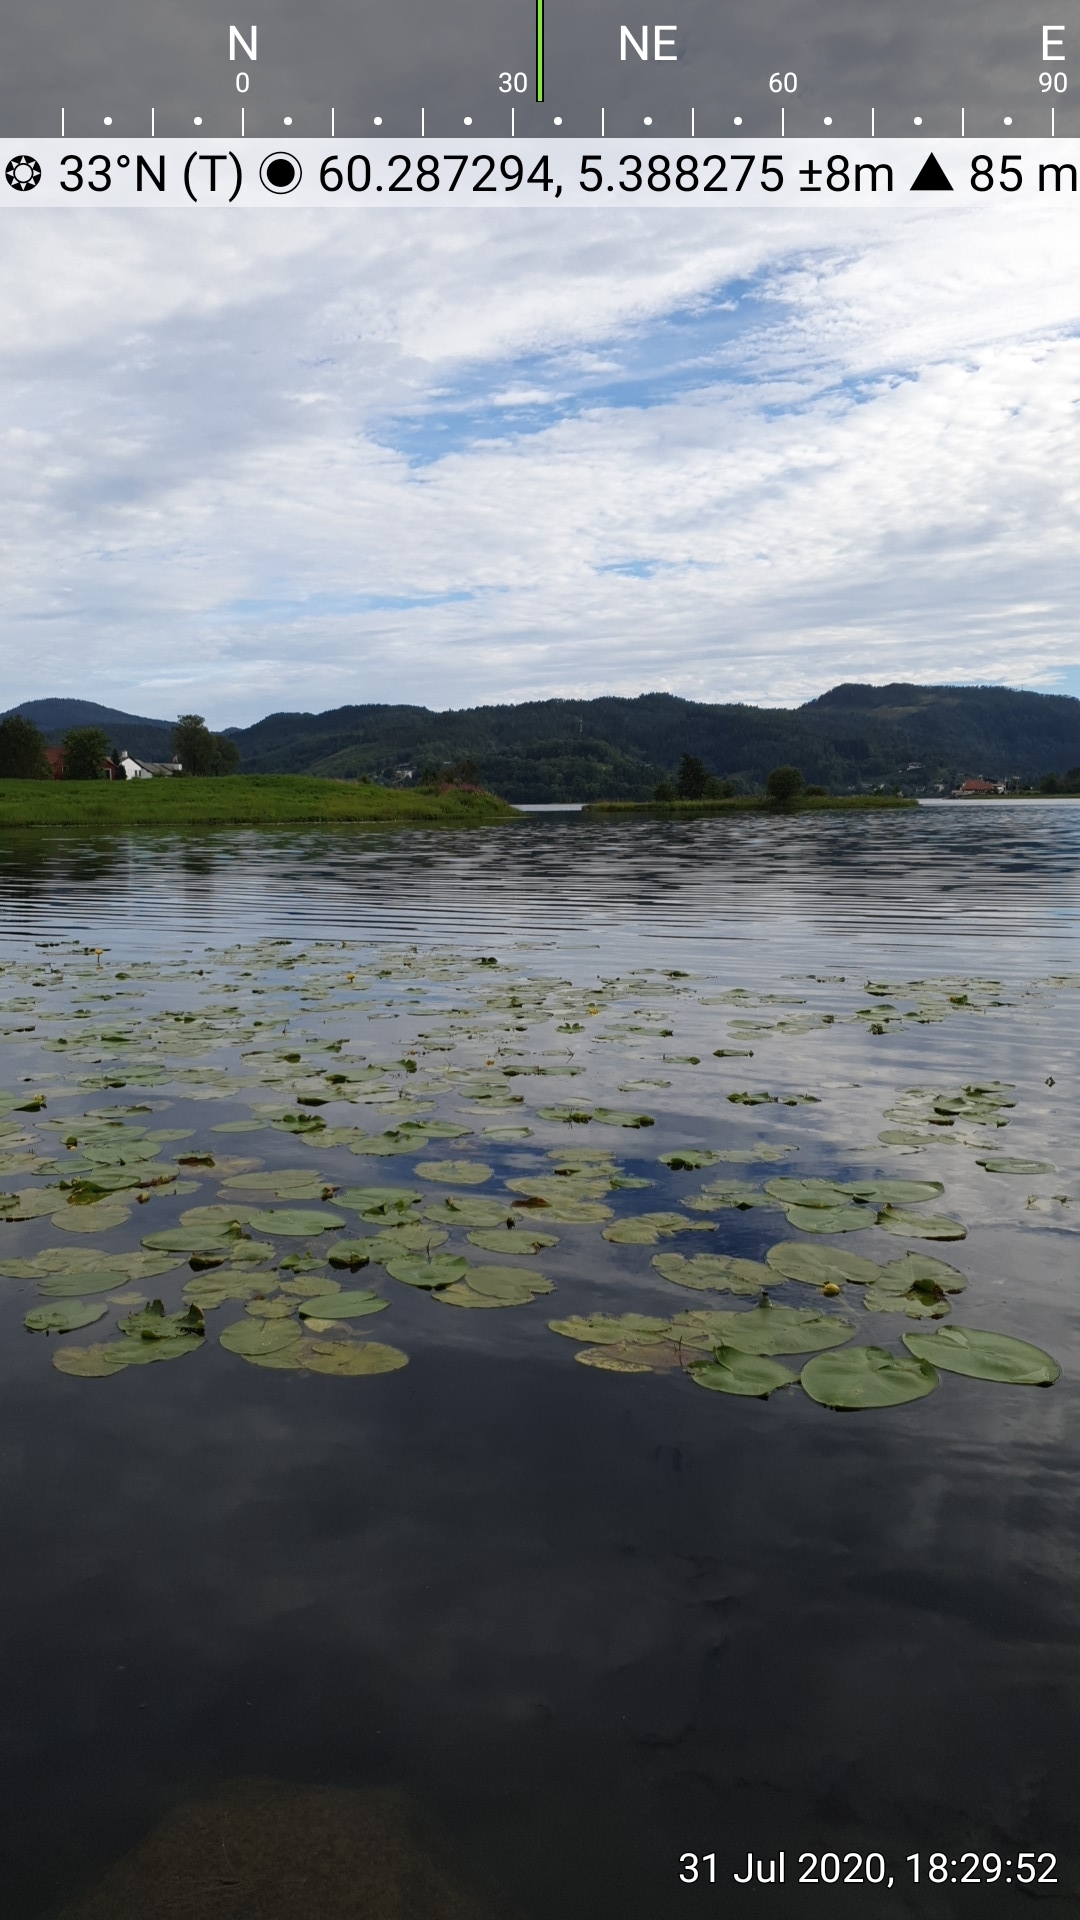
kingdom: Plantae
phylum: Tracheophyta
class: Magnoliopsida
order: Nymphaeales
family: Nymphaeaceae
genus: Nuphar
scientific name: Nuphar lutea
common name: Yellow water-lily
